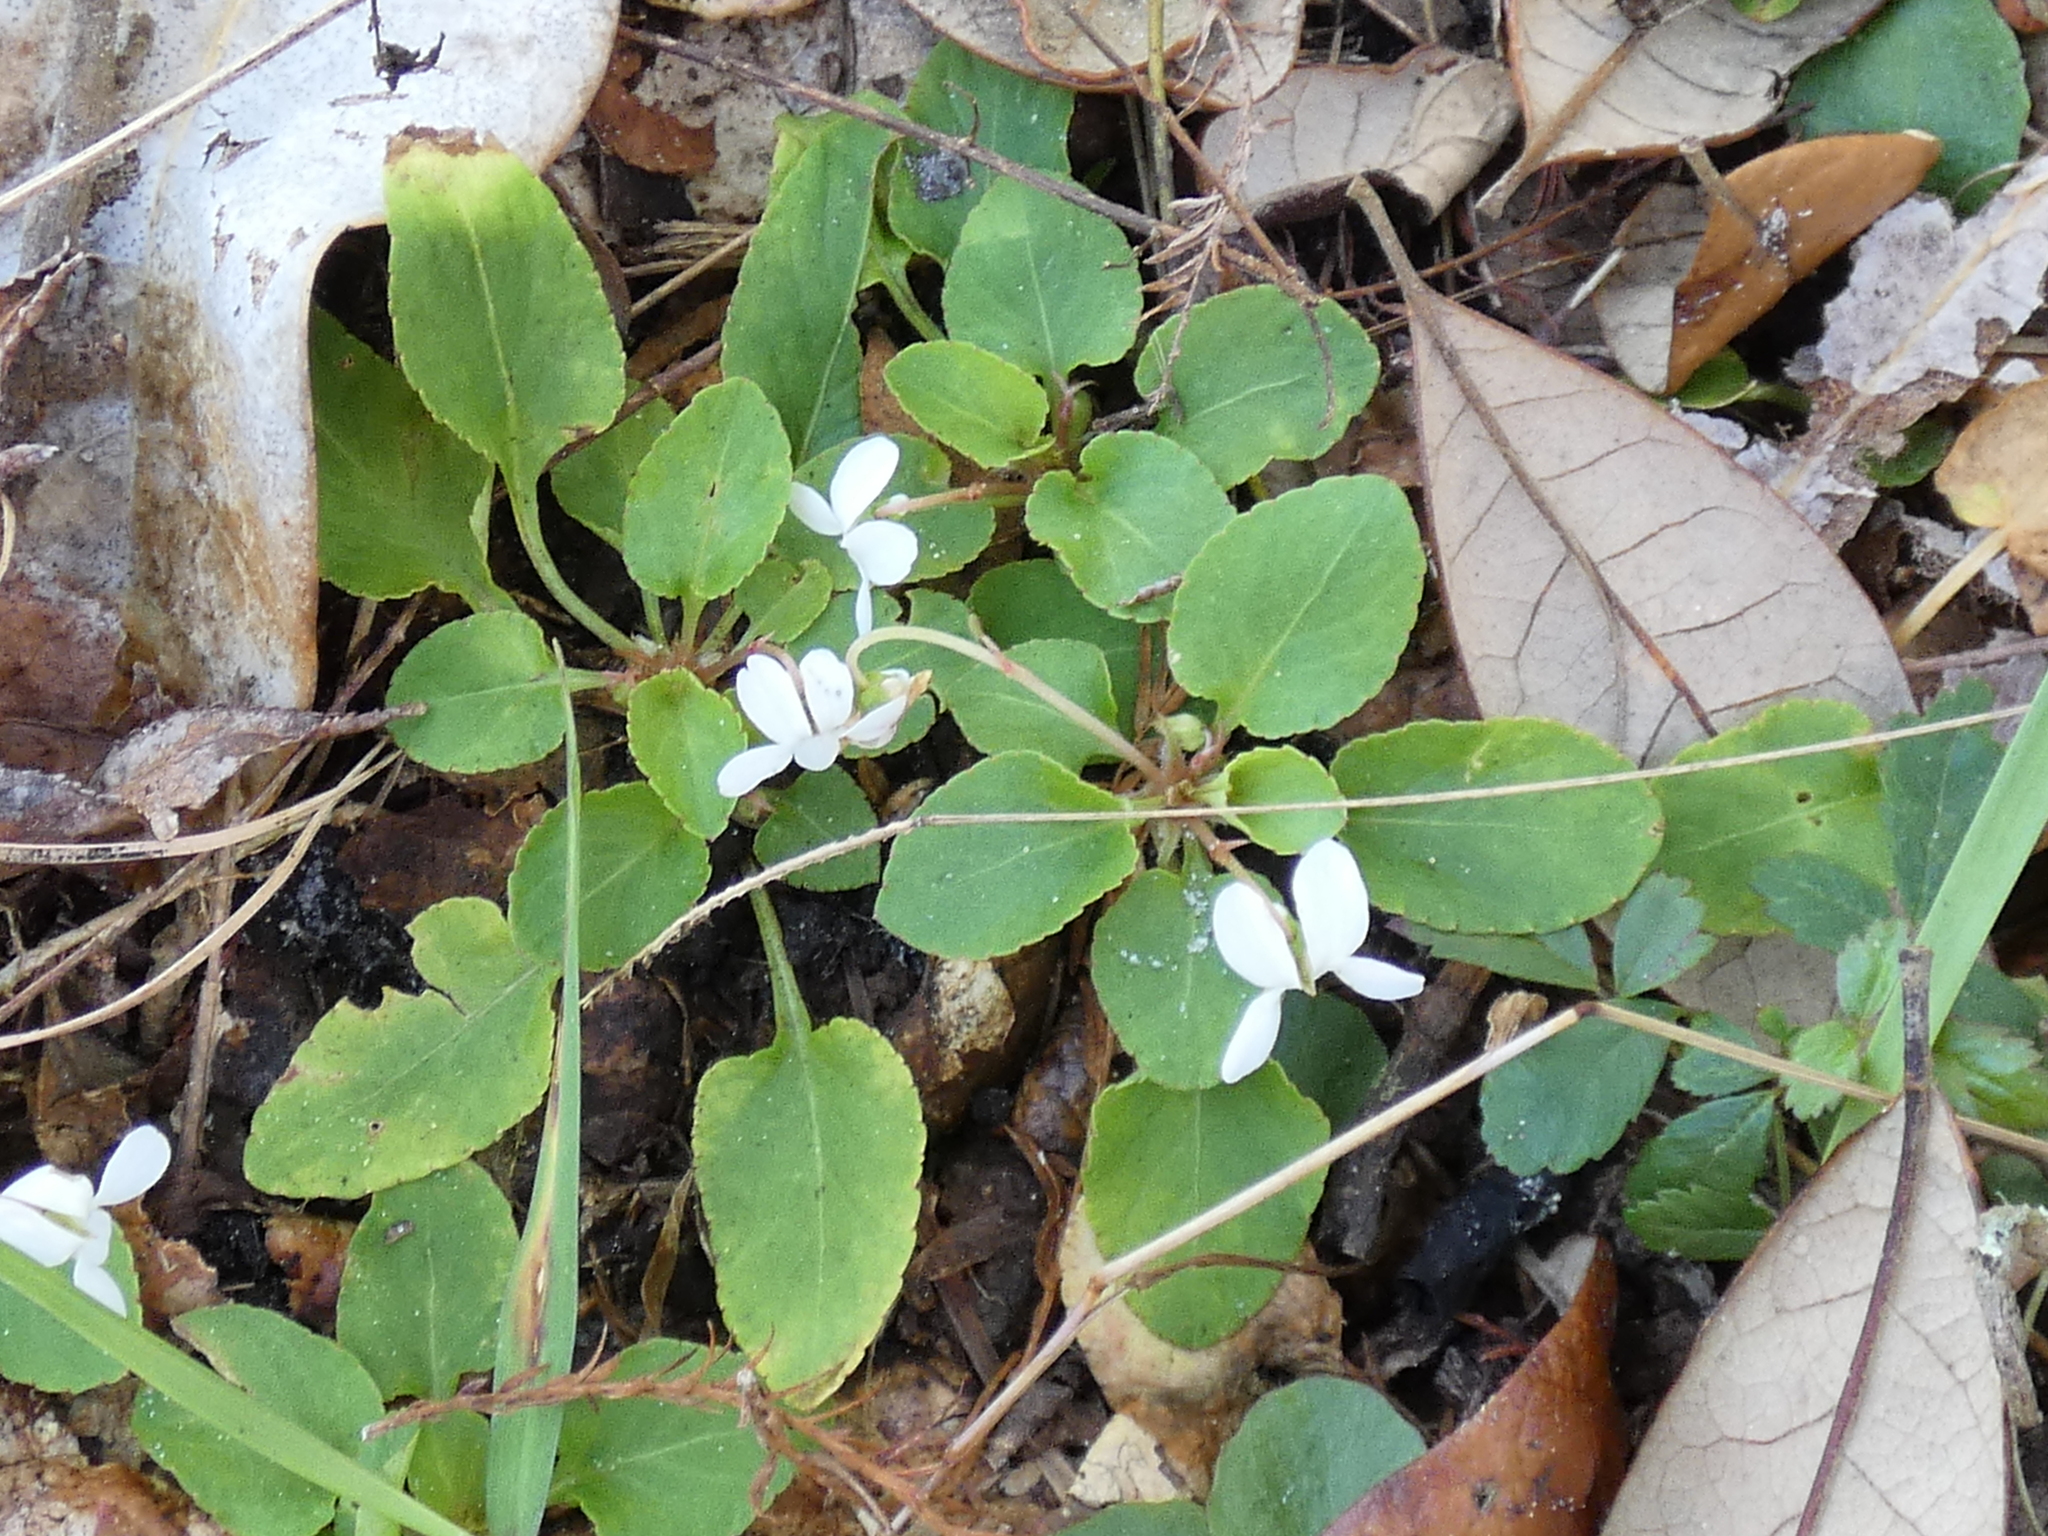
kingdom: Plantae
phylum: Tracheophyta
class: Magnoliopsida
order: Malpighiales
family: Violaceae
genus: Viola
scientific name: Viola primulifolia
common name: Primrose-leaf violet
